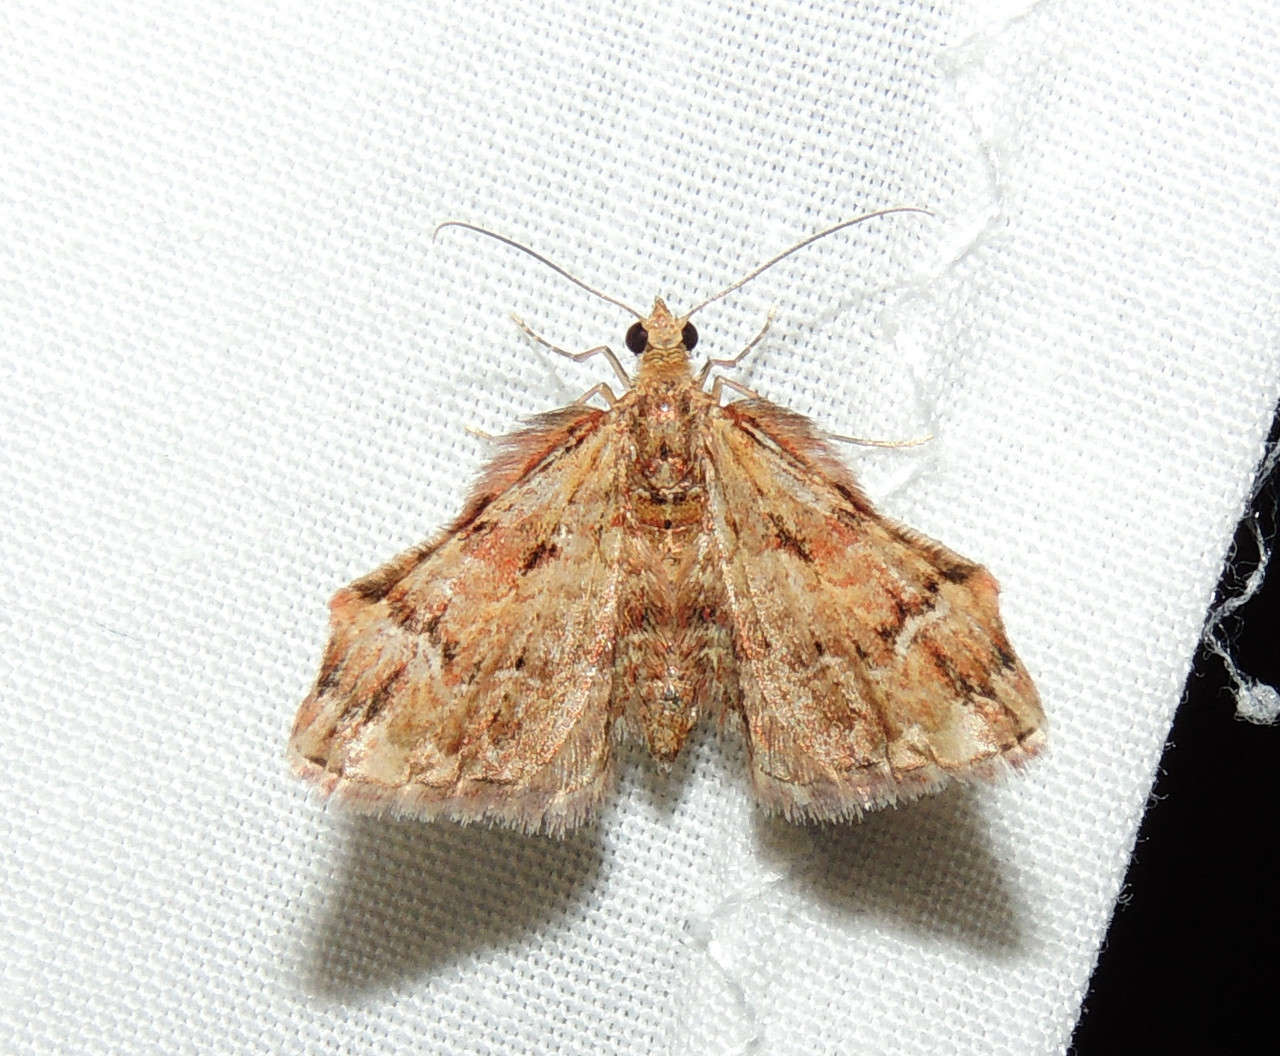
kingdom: Animalia
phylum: Arthropoda
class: Insecta
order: Lepidoptera
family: Geometridae
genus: Chloroclystis
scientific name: Chloroclystis approximata
